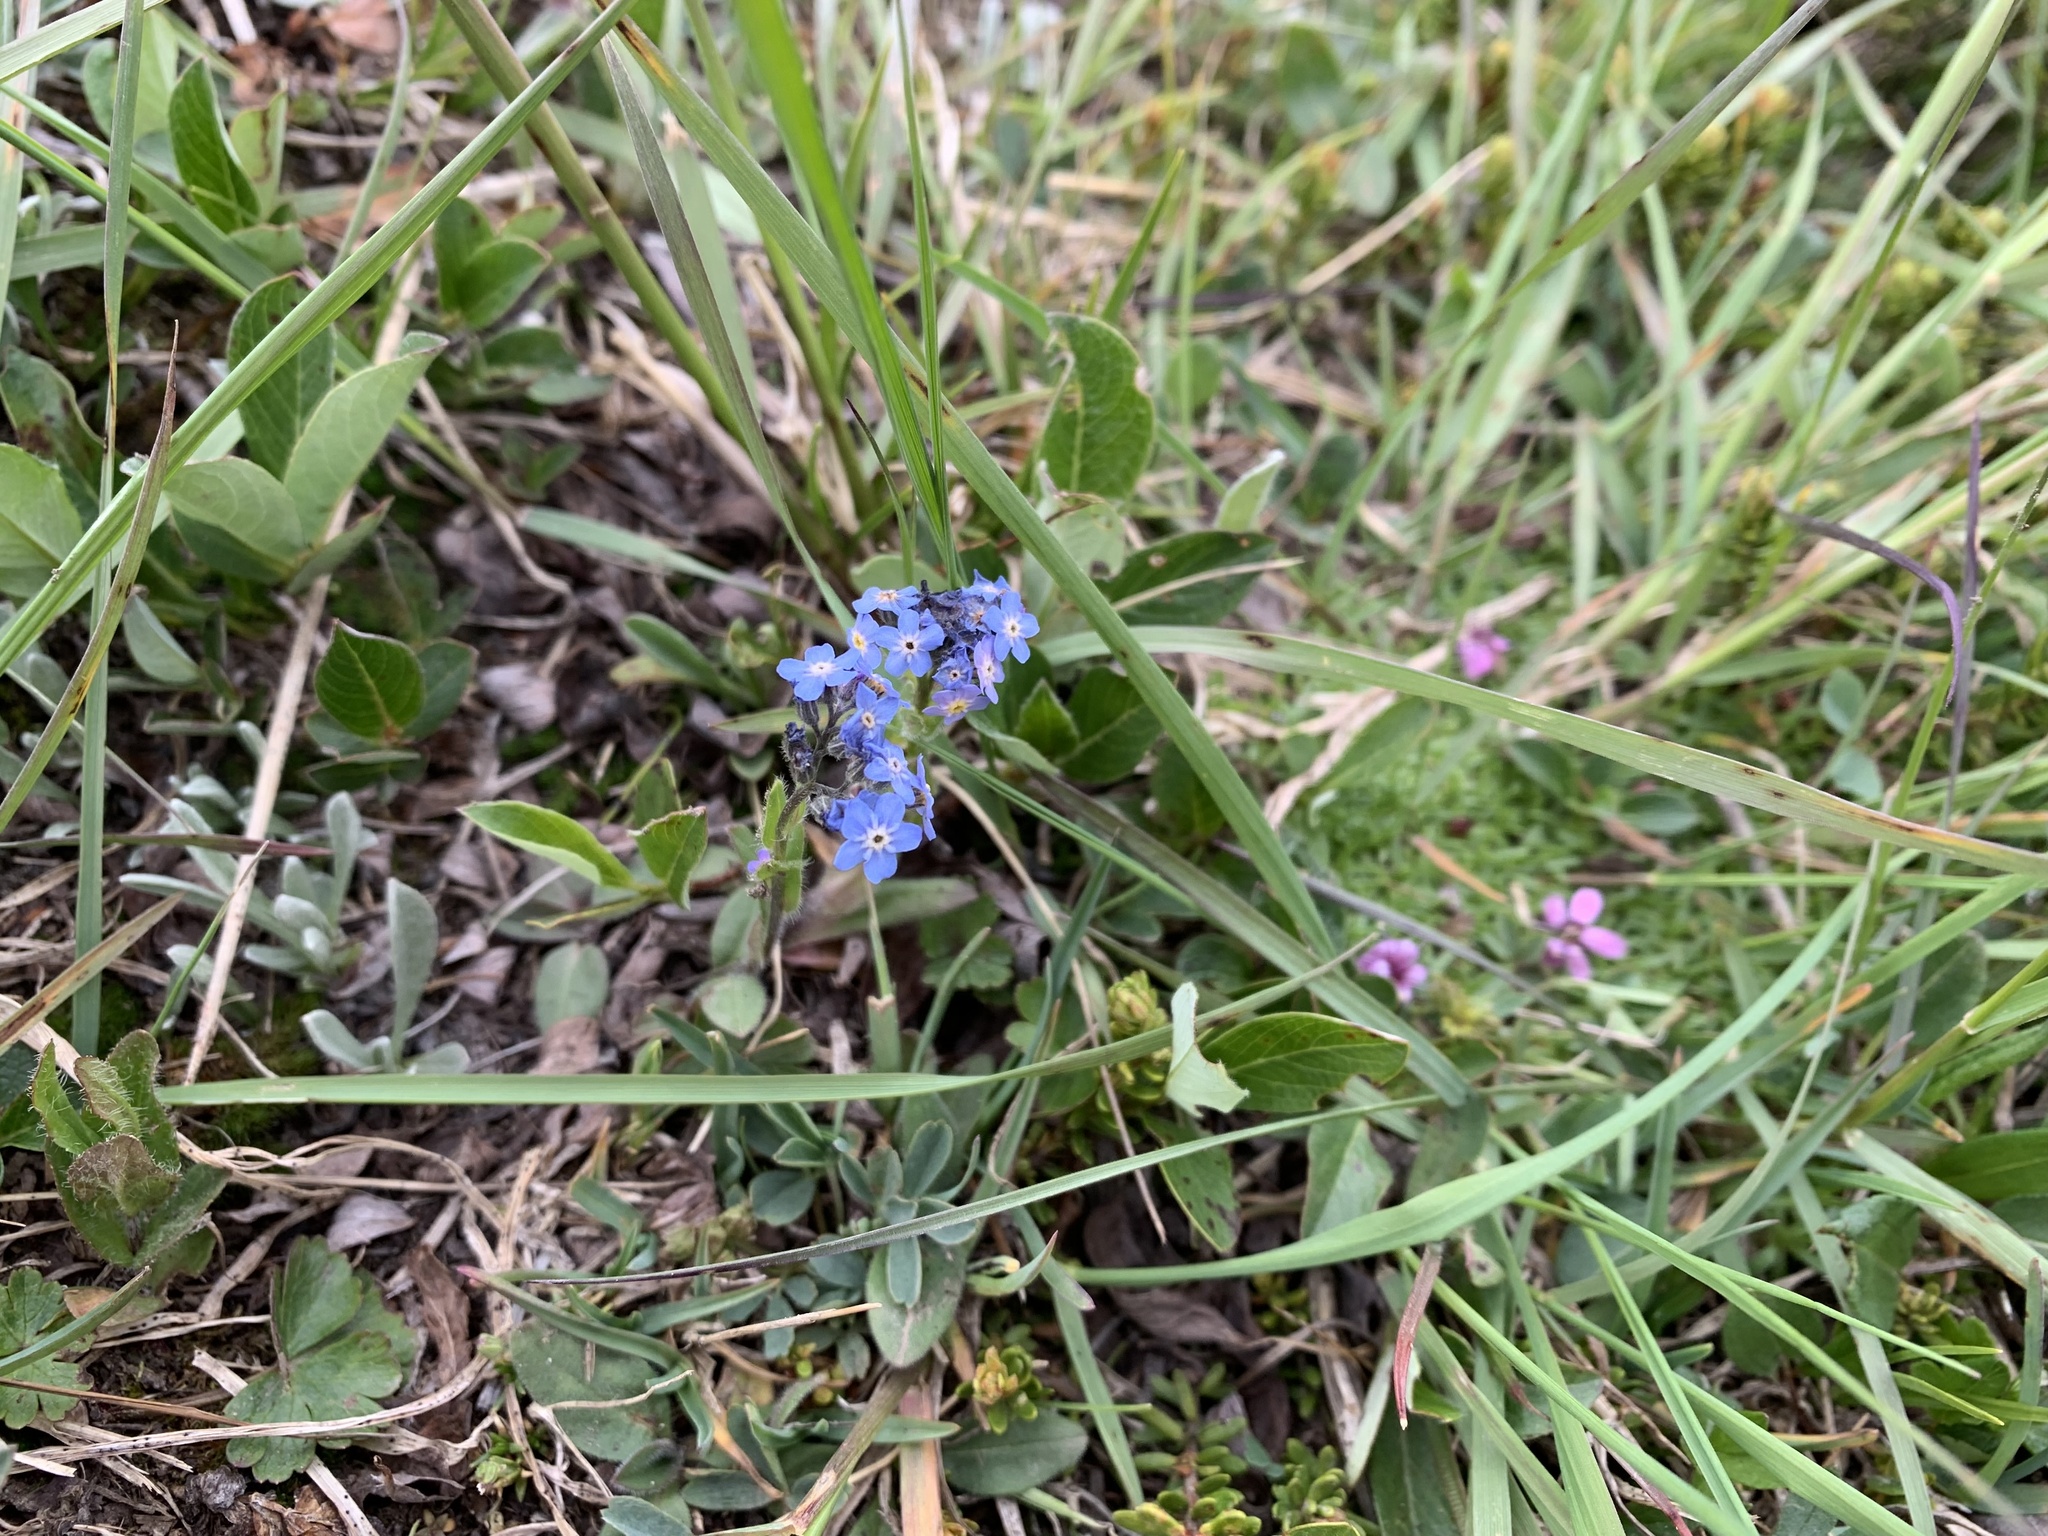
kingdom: Plantae
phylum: Tracheophyta
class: Magnoliopsida
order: Boraginales
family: Boraginaceae
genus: Myosotis
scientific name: Myosotis asiatica
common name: Asian forget-me-not
